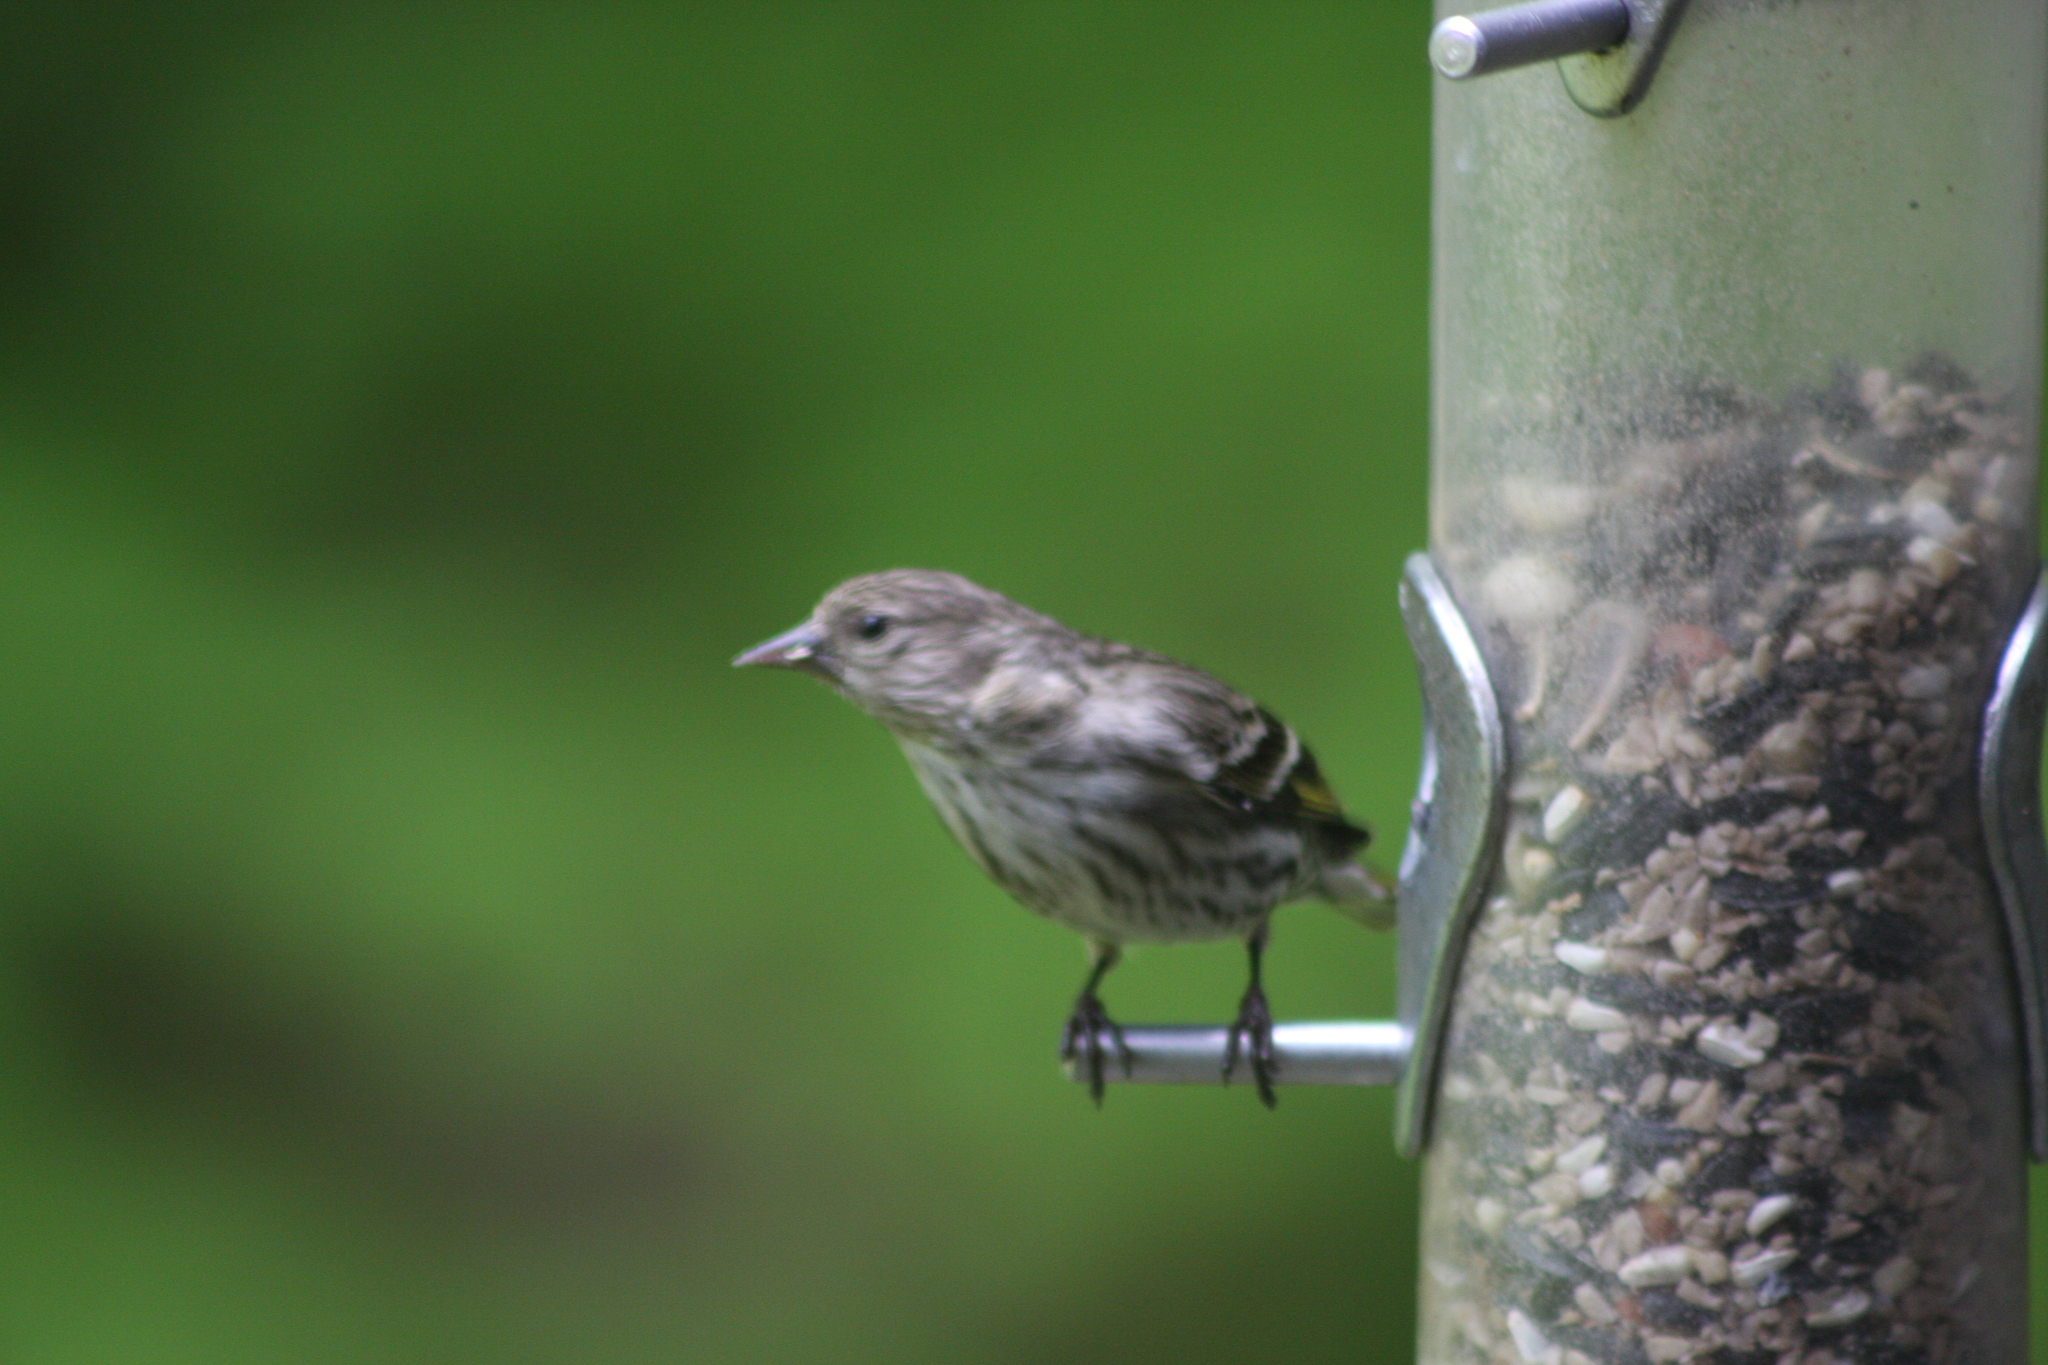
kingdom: Animalia
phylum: Chordata
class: Aves
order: Passeriformes
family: Fringillidae
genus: Spinus
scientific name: Spinus pinus
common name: Pine siskin
